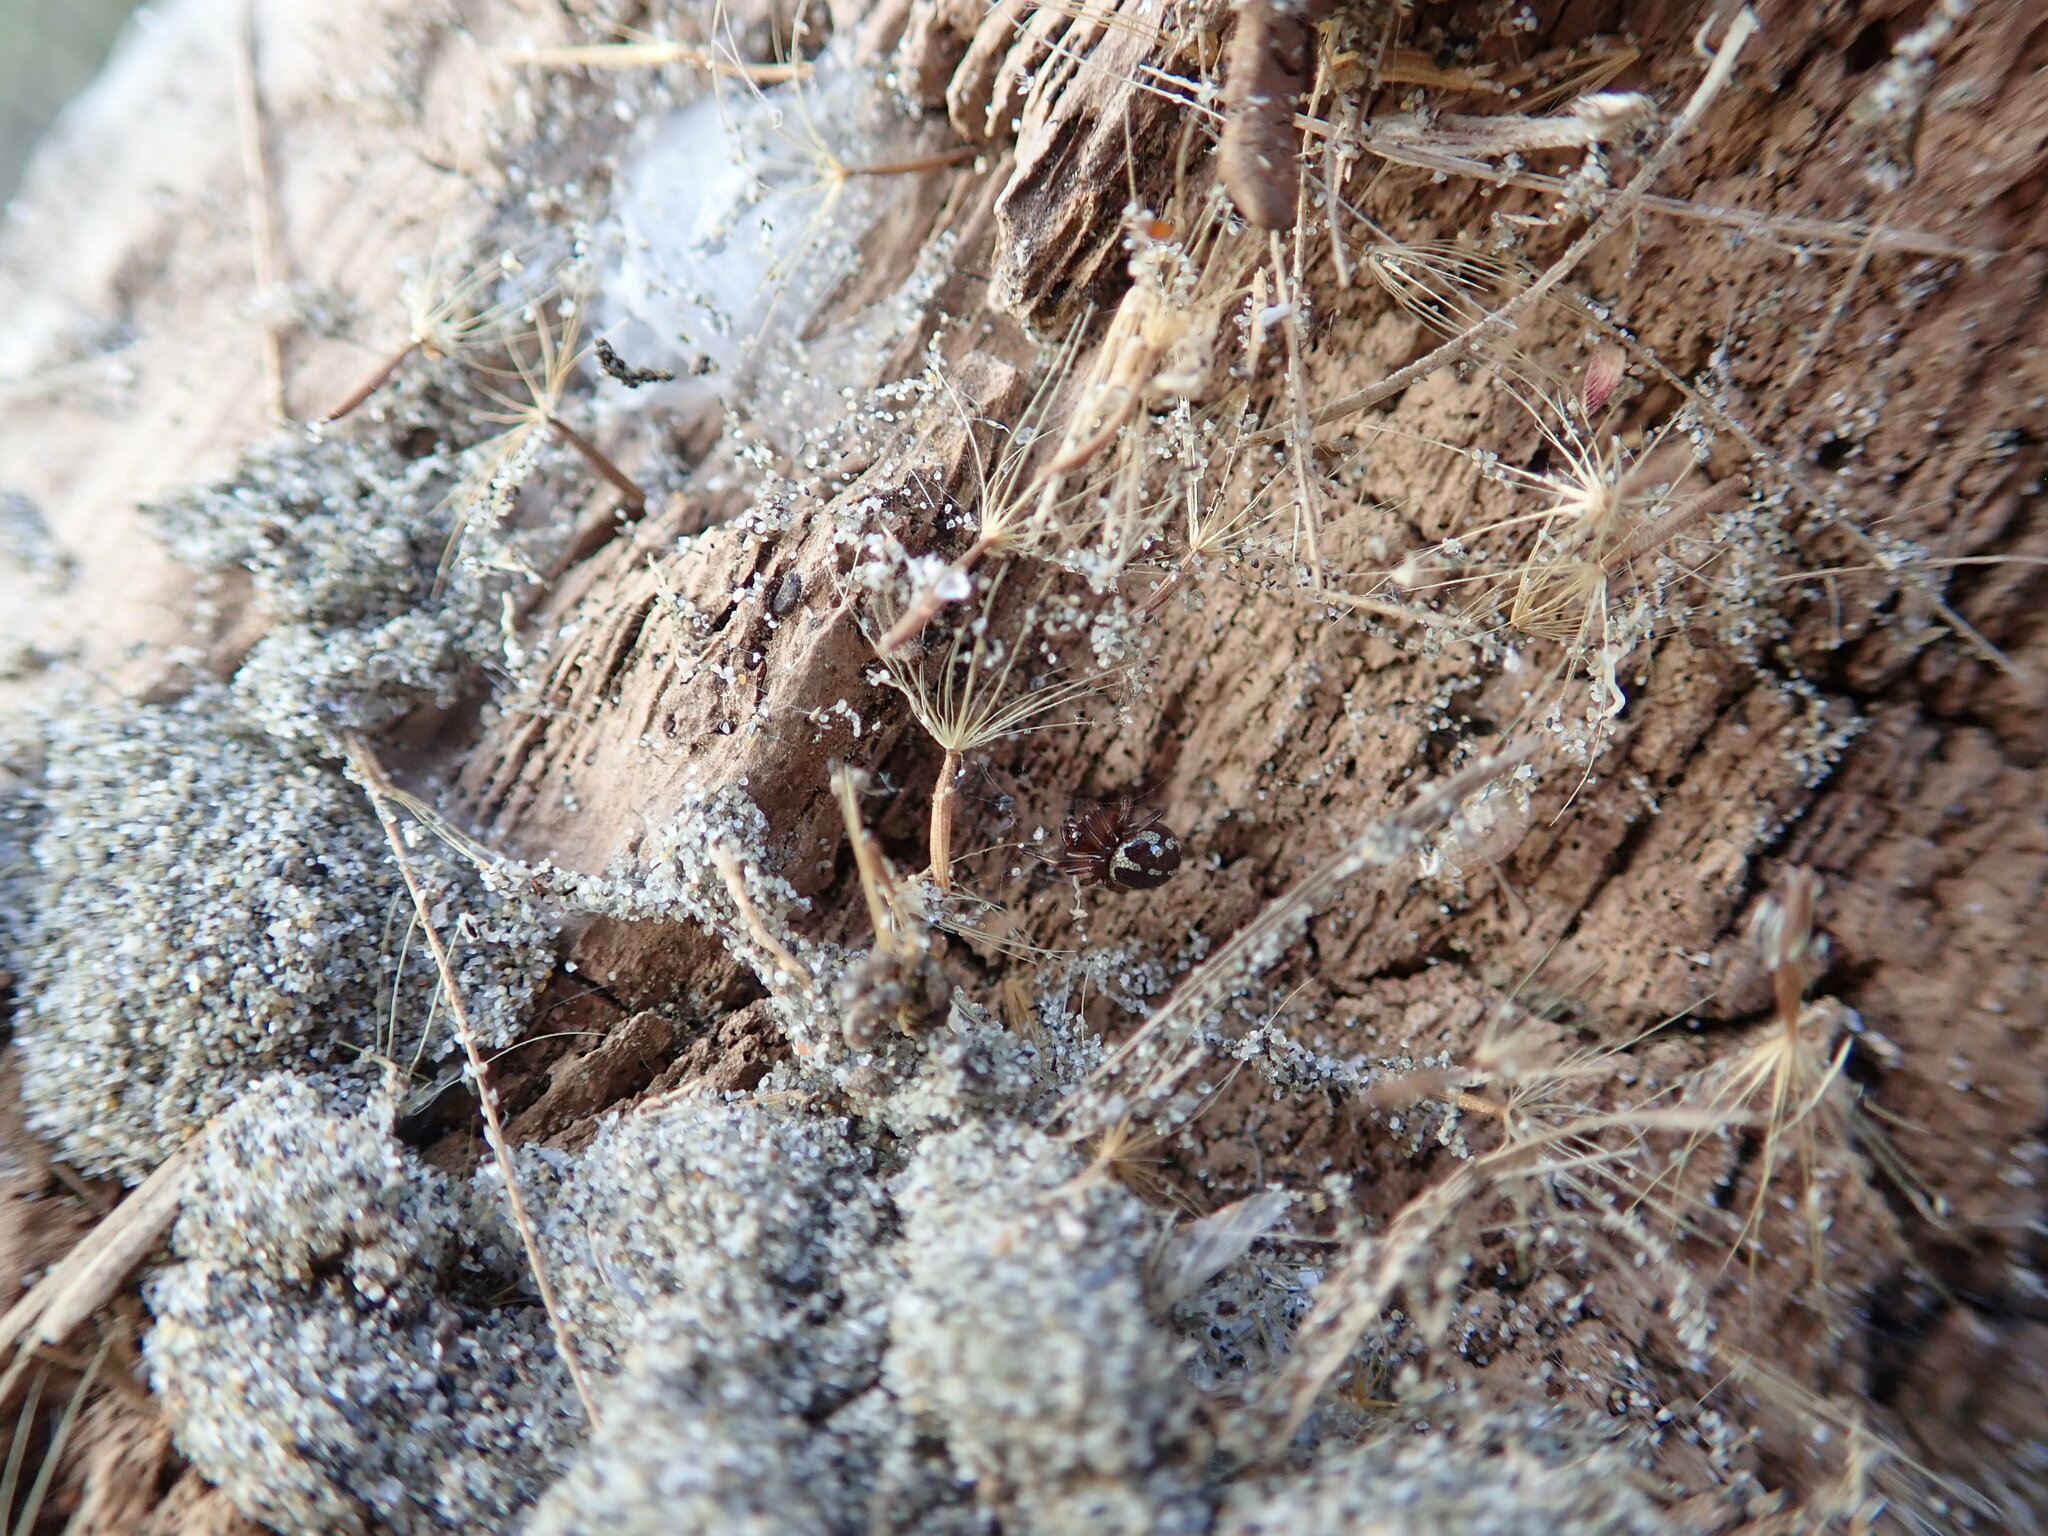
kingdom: Animalia
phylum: Arthropoda
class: Arachnida
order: Araneae
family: Theridiidae
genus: Steatoda
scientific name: Steatoda lepida
